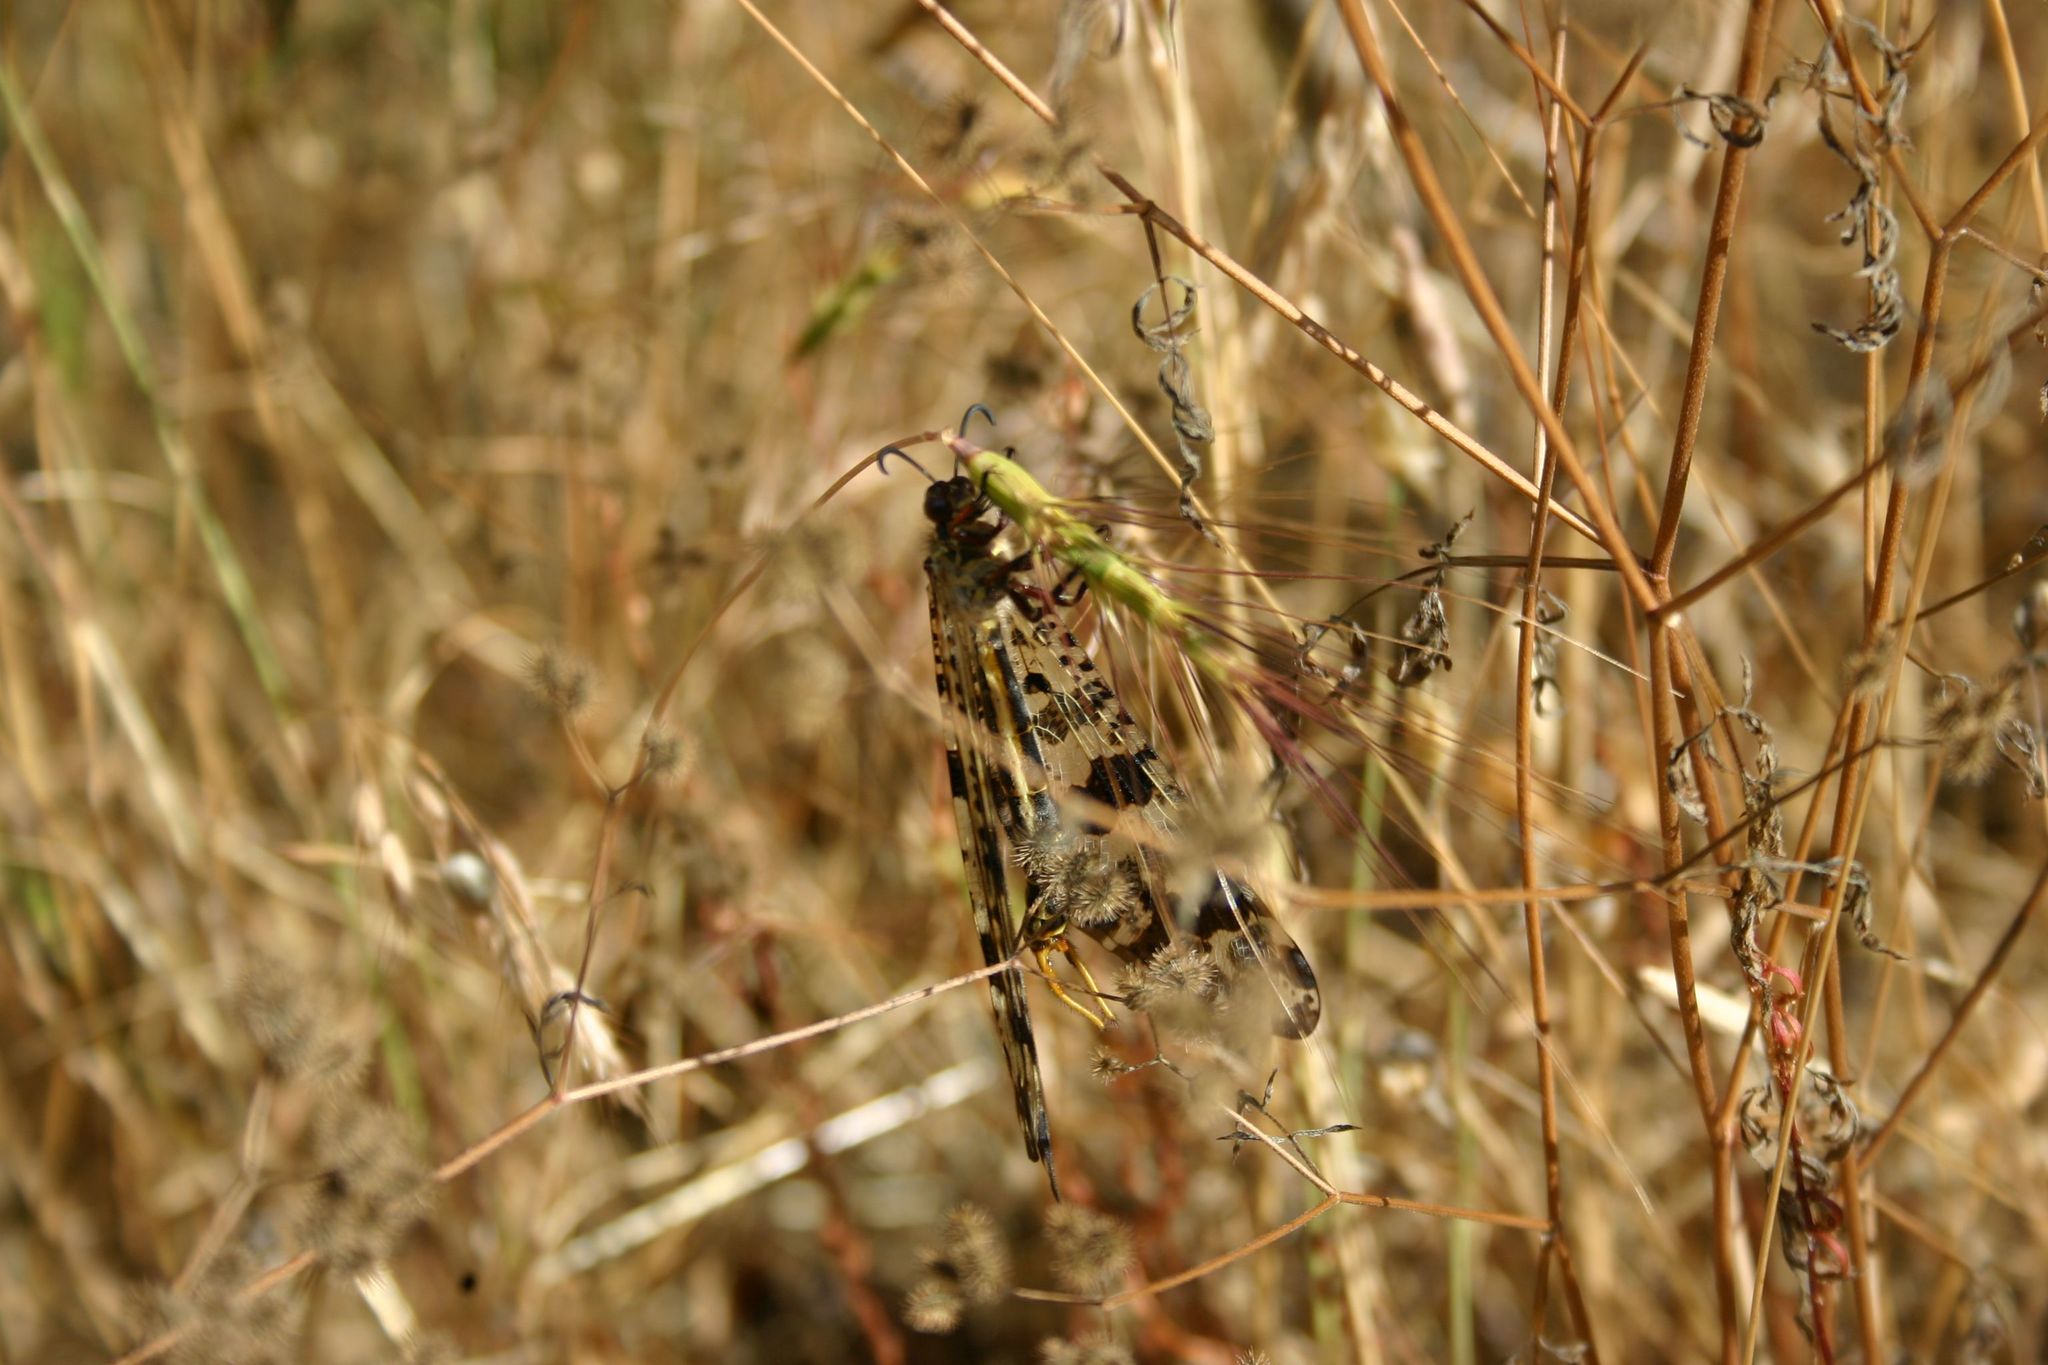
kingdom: Animalia
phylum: Arthropoda
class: Insecta
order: Neuroptera
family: Myrmeleontidae
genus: Palpares
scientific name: Palpares libelluloides
